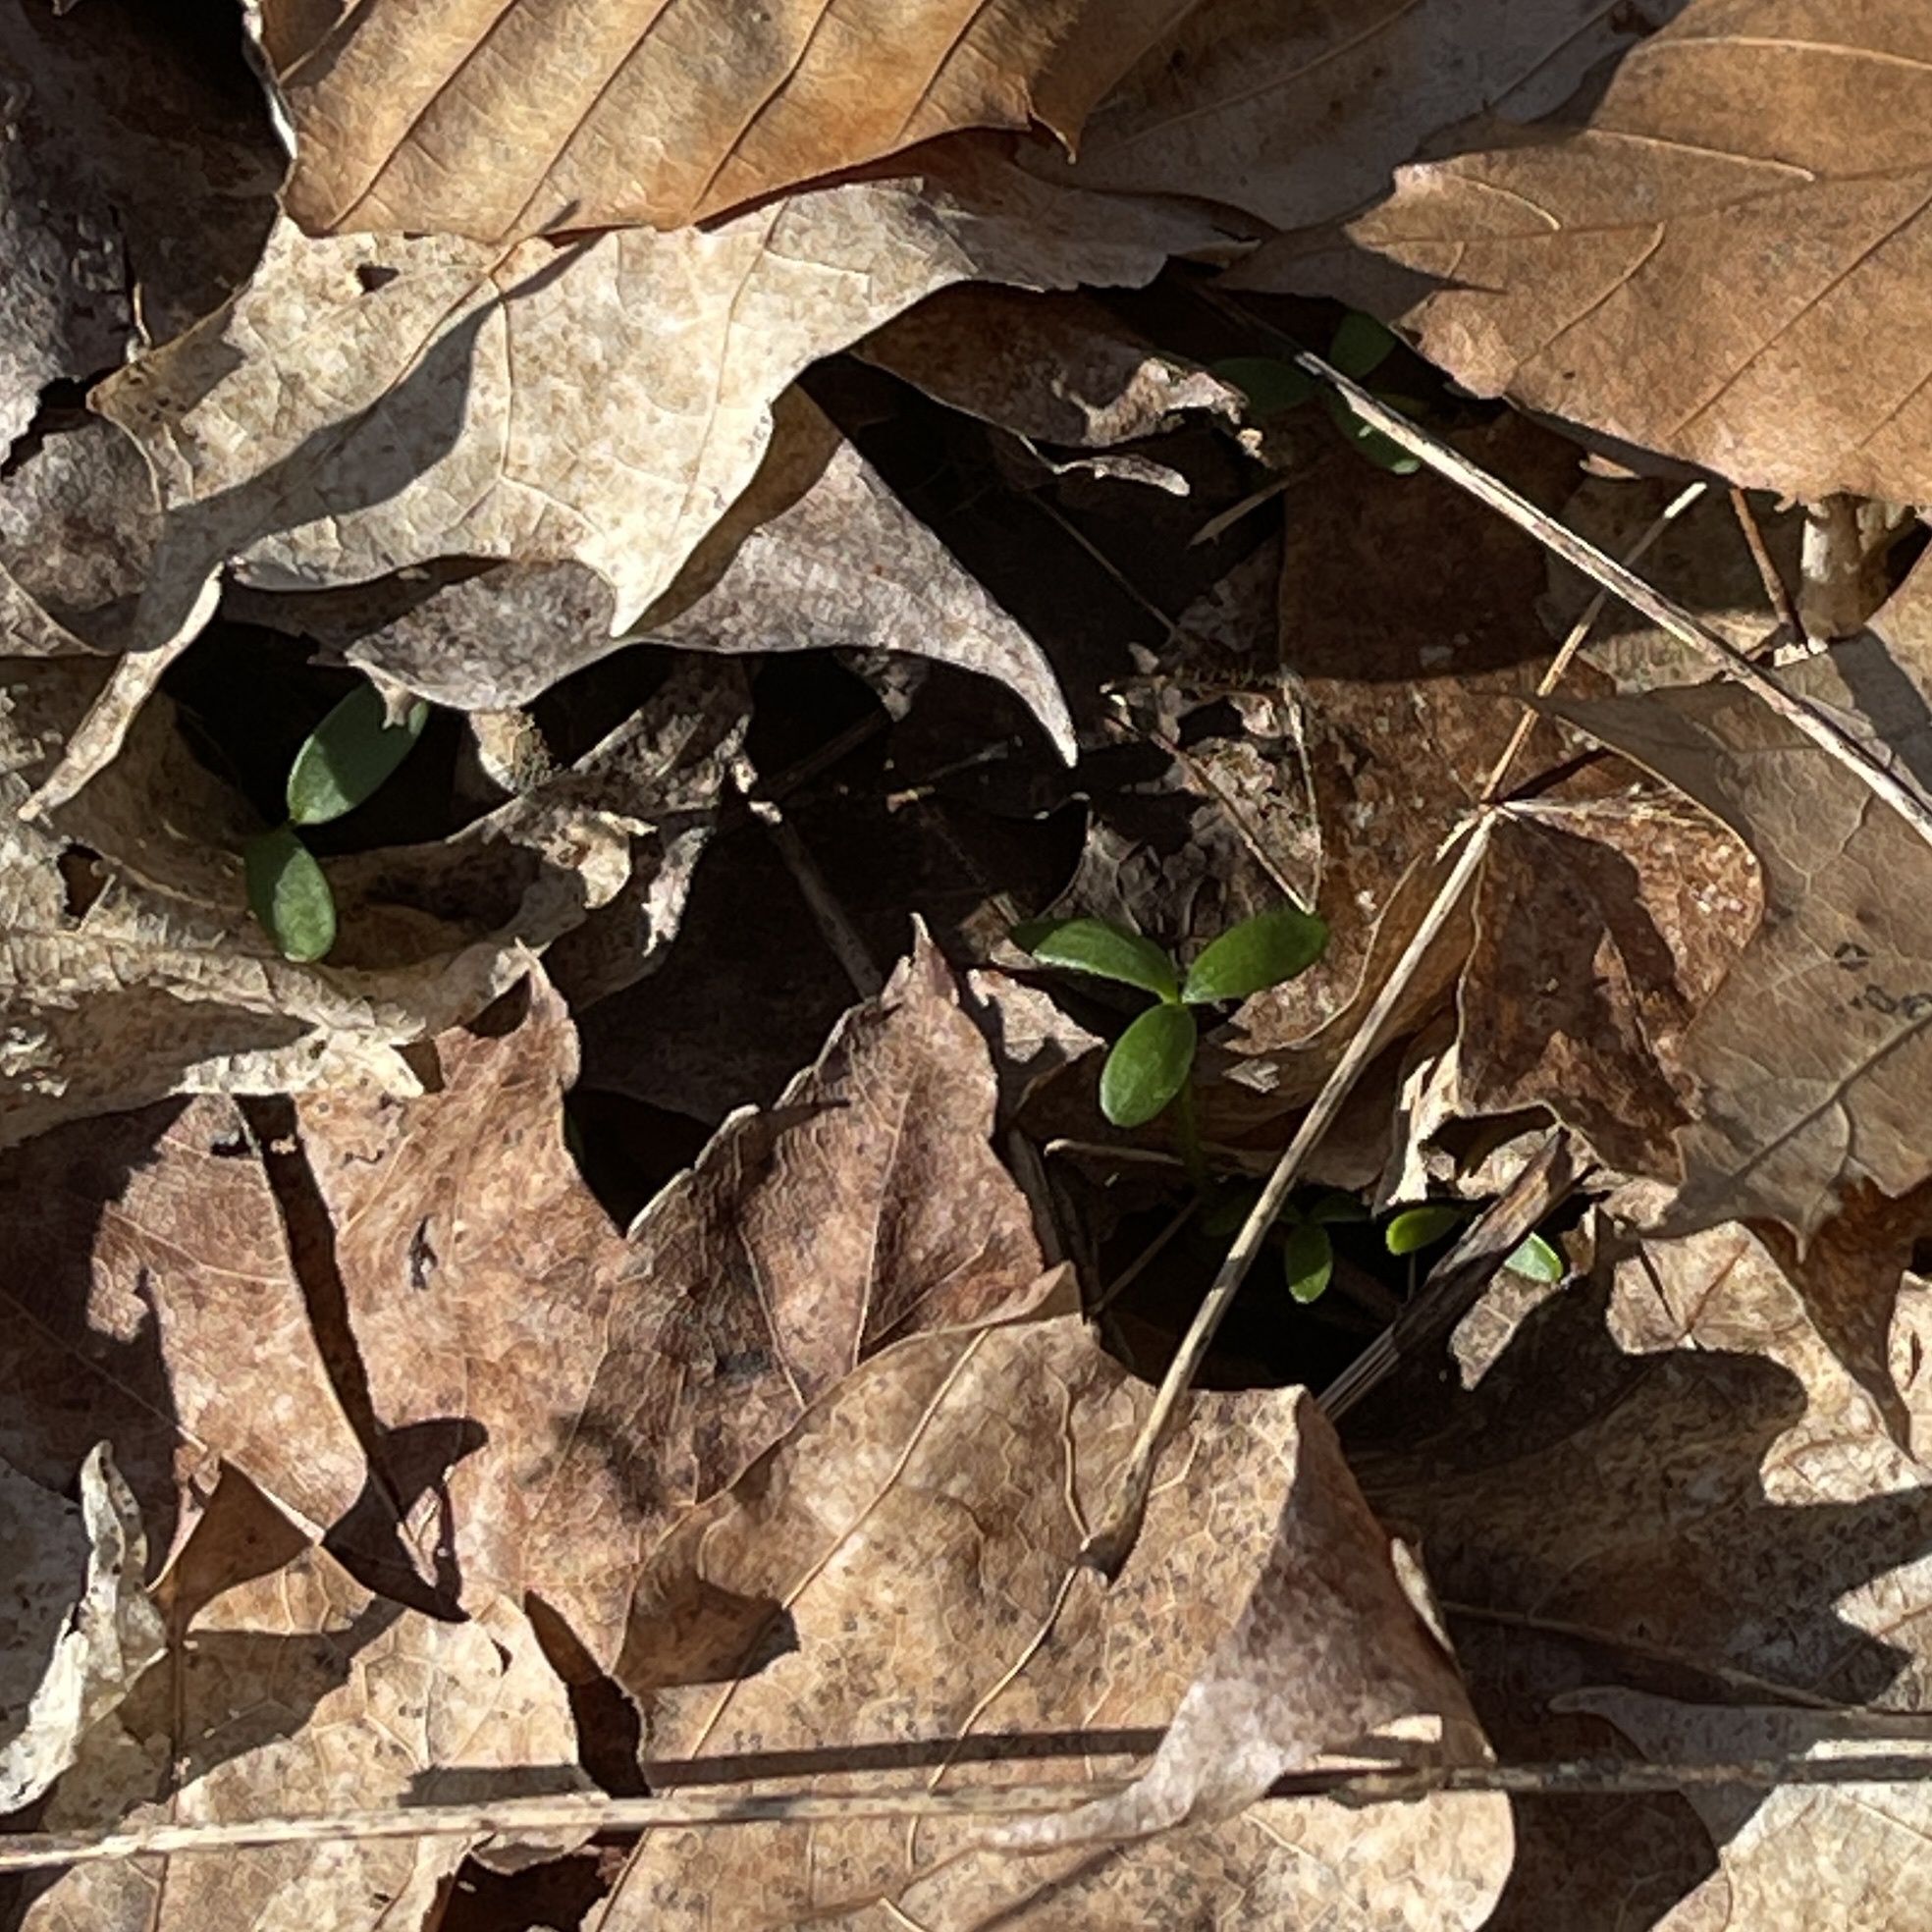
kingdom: Plantae
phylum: Tracheophyta
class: Magnoliopsida
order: Brassicales
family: Limnanthaceae
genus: Floerkea
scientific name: Floerkea proserpinacoides
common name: False mermaid
